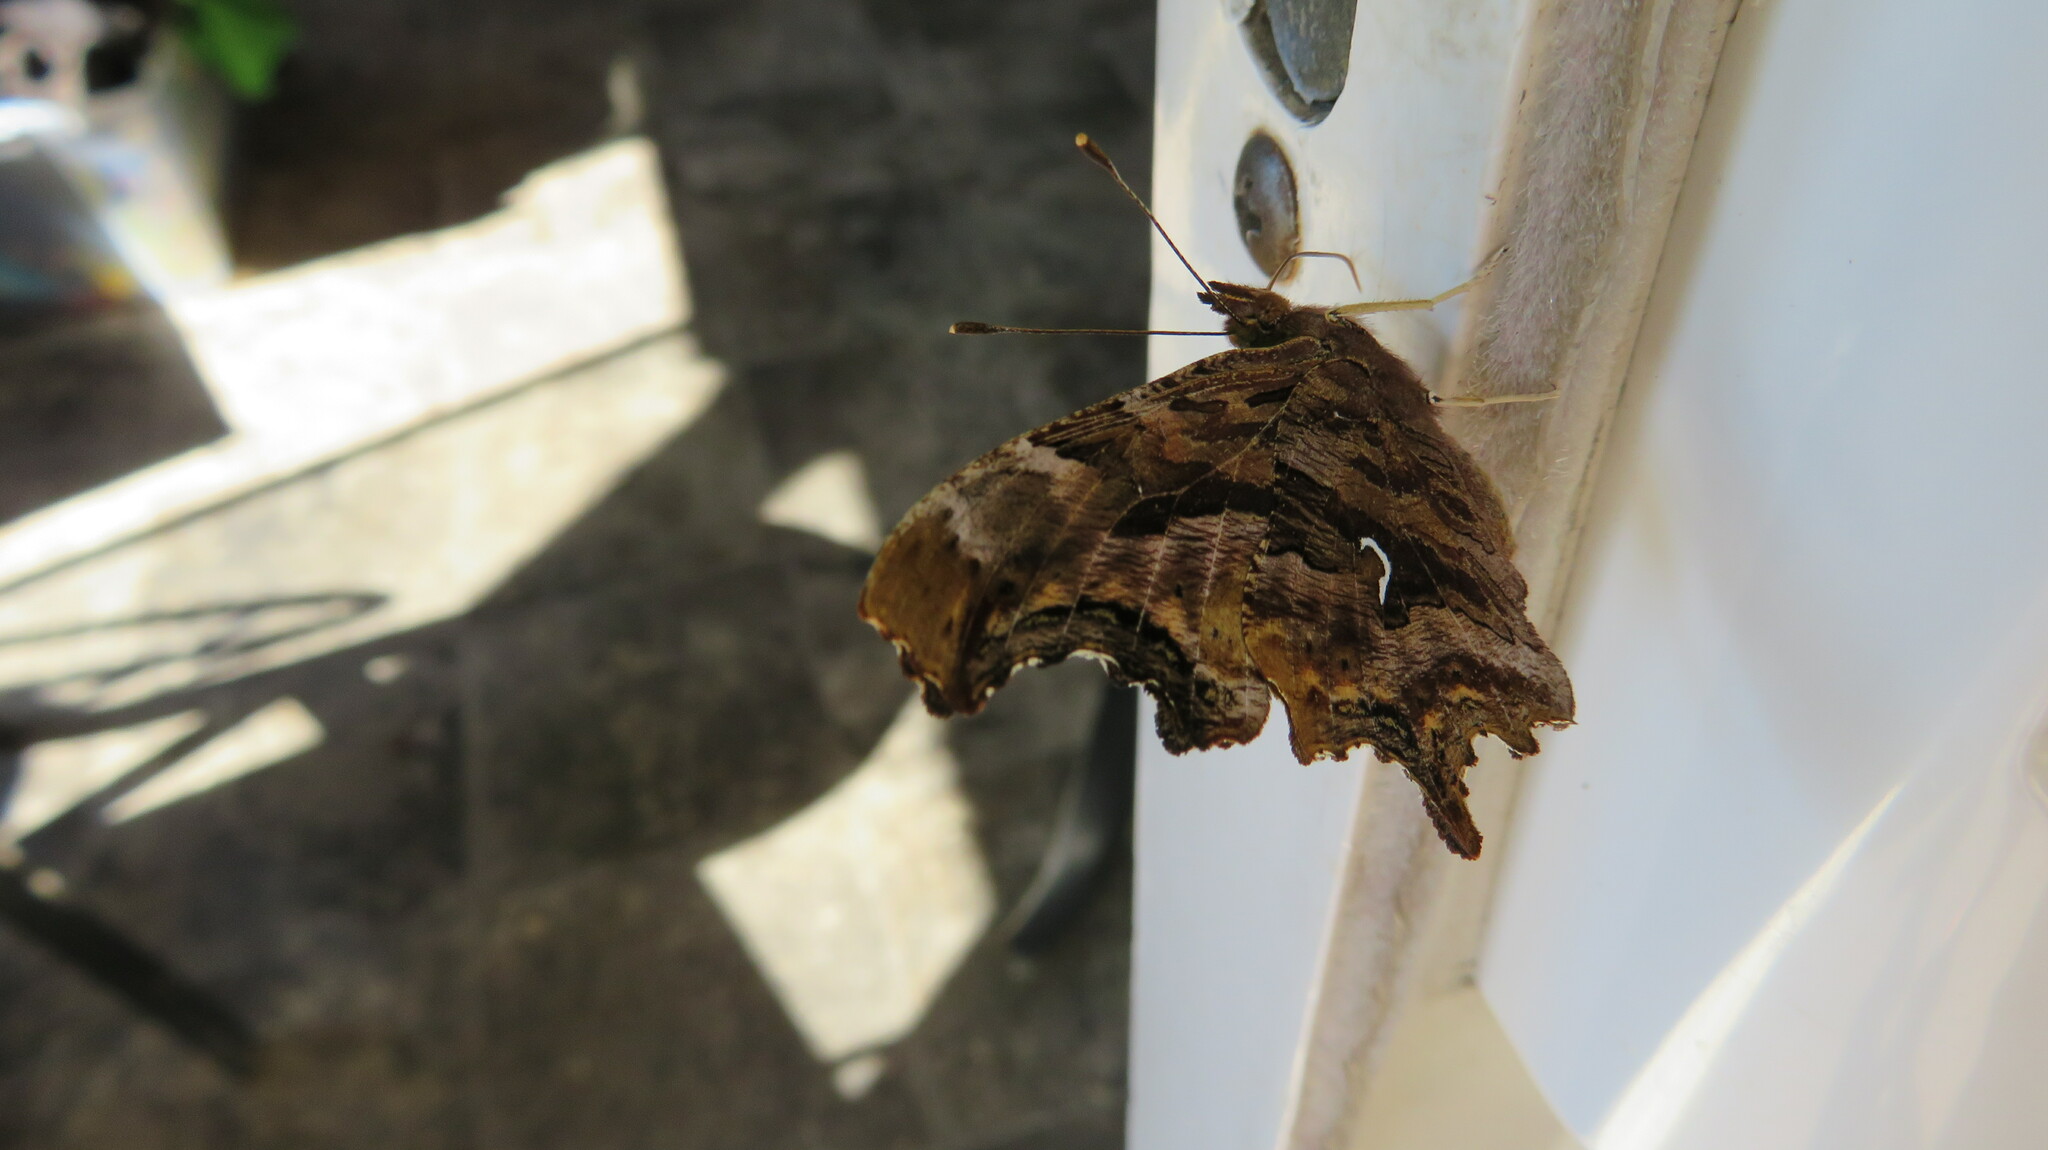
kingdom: Animalia
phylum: Arthropoda
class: Insecta
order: Lepidoptera
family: Nymphalidae
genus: Polygonia
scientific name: Polygonia satyrus
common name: Satyr angle wing
